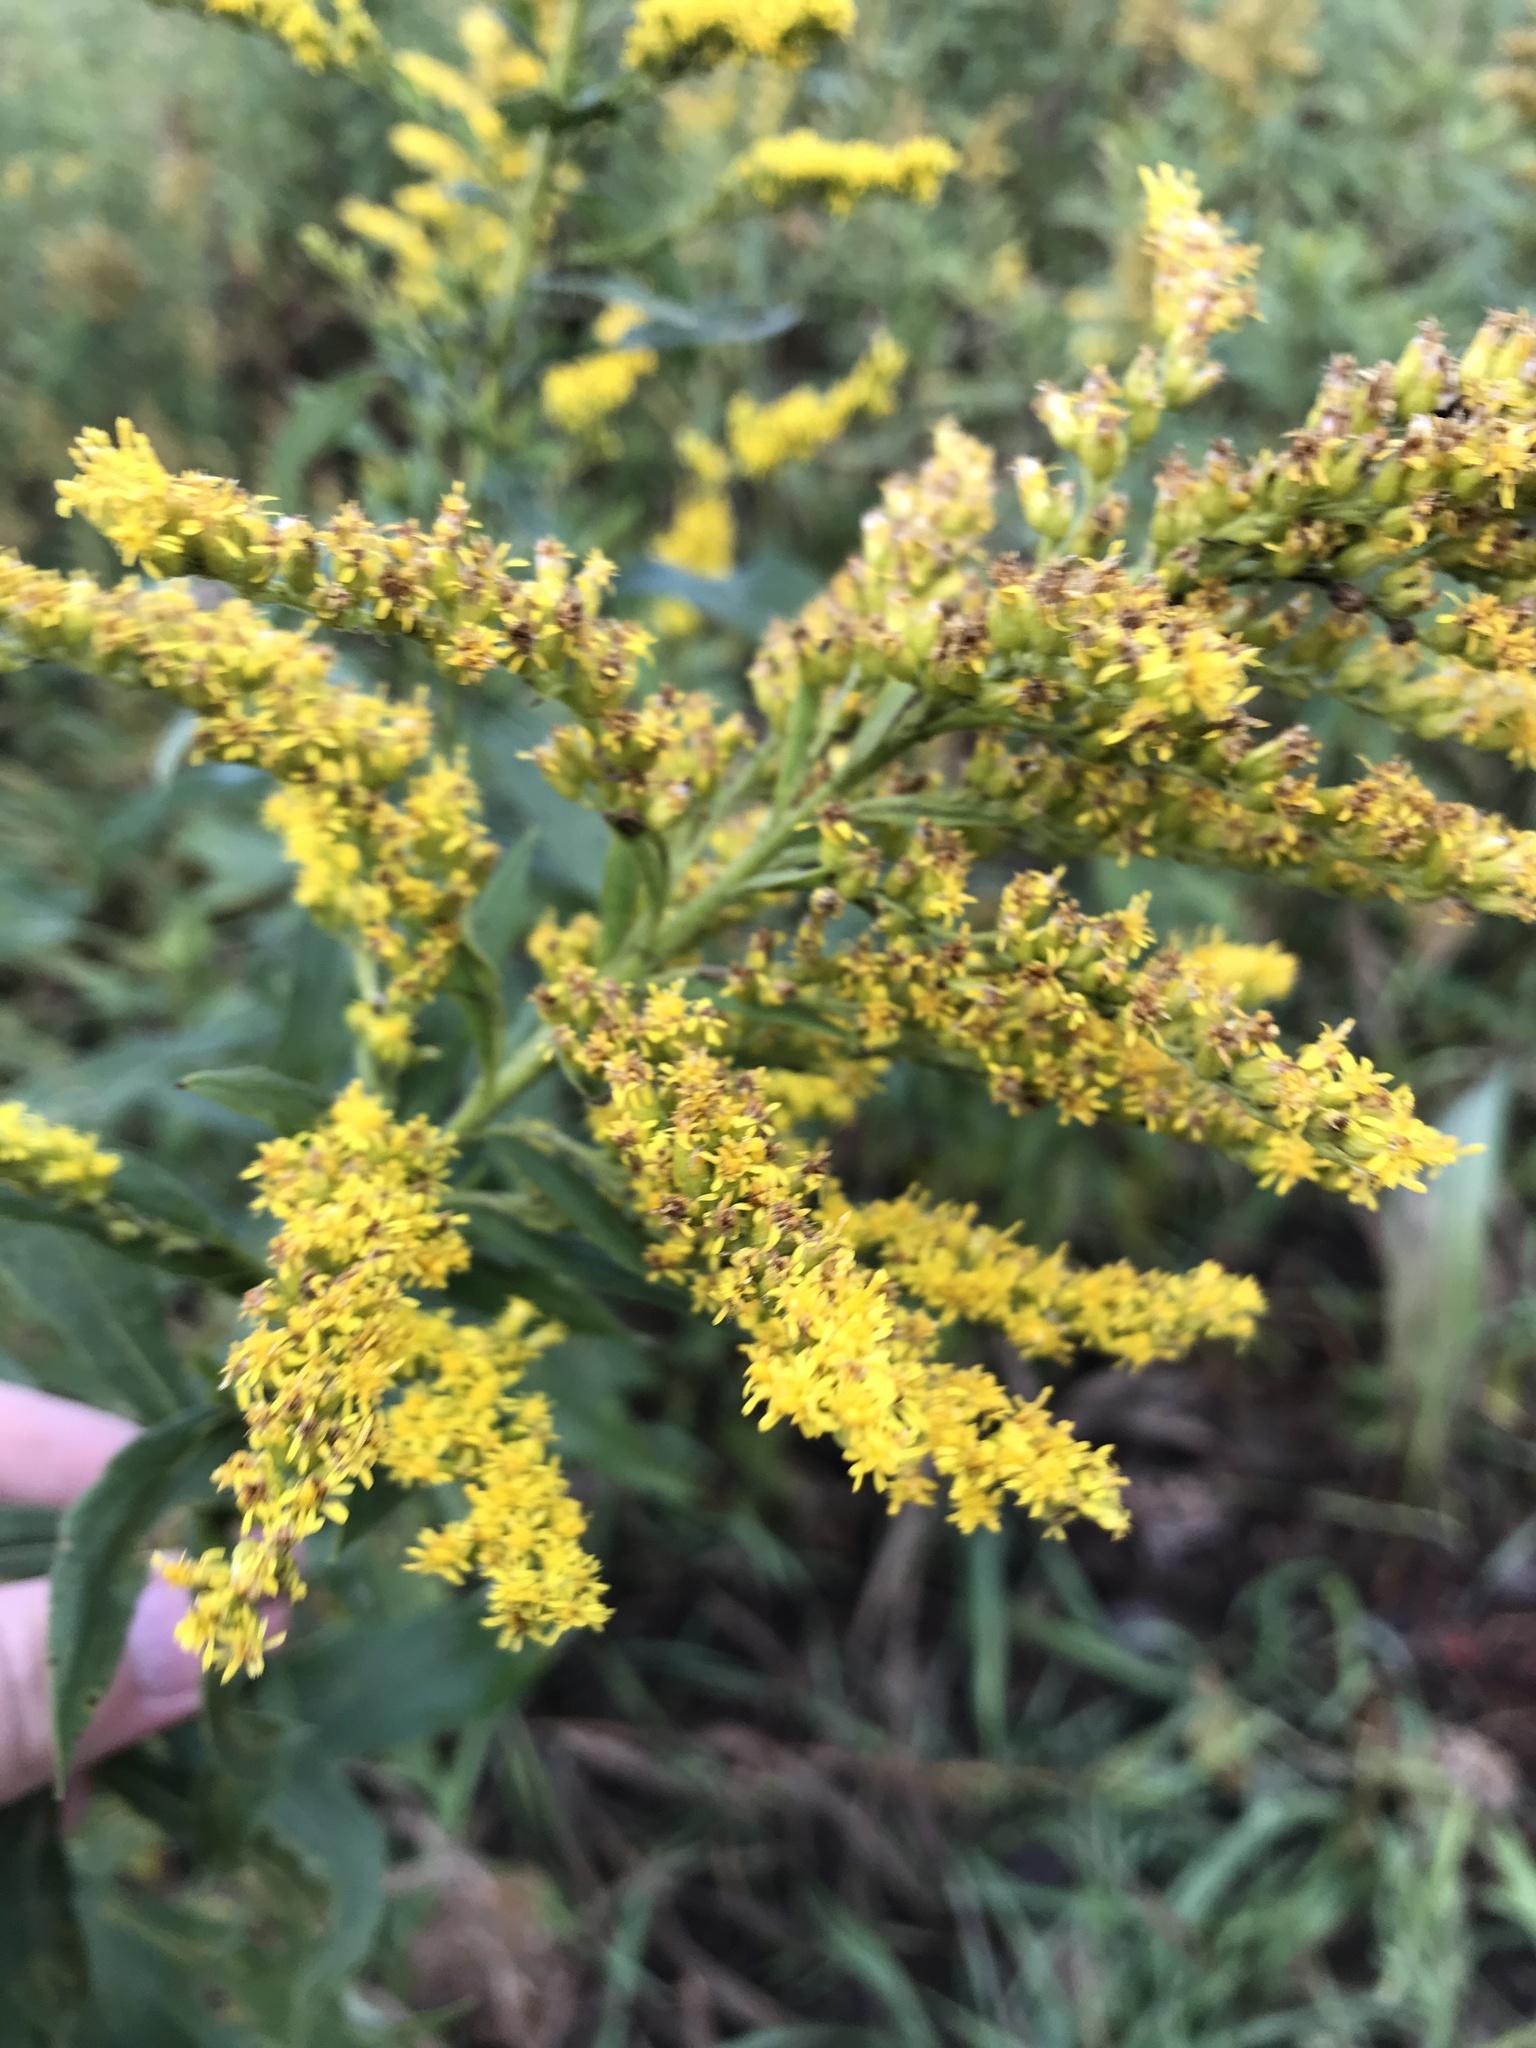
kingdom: Plantae
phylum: Tracheophyta
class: Magnoliopsida
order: Asterales
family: Asteraceae
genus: Solidago
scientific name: Solidago canadensis
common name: Canada goldenrod
